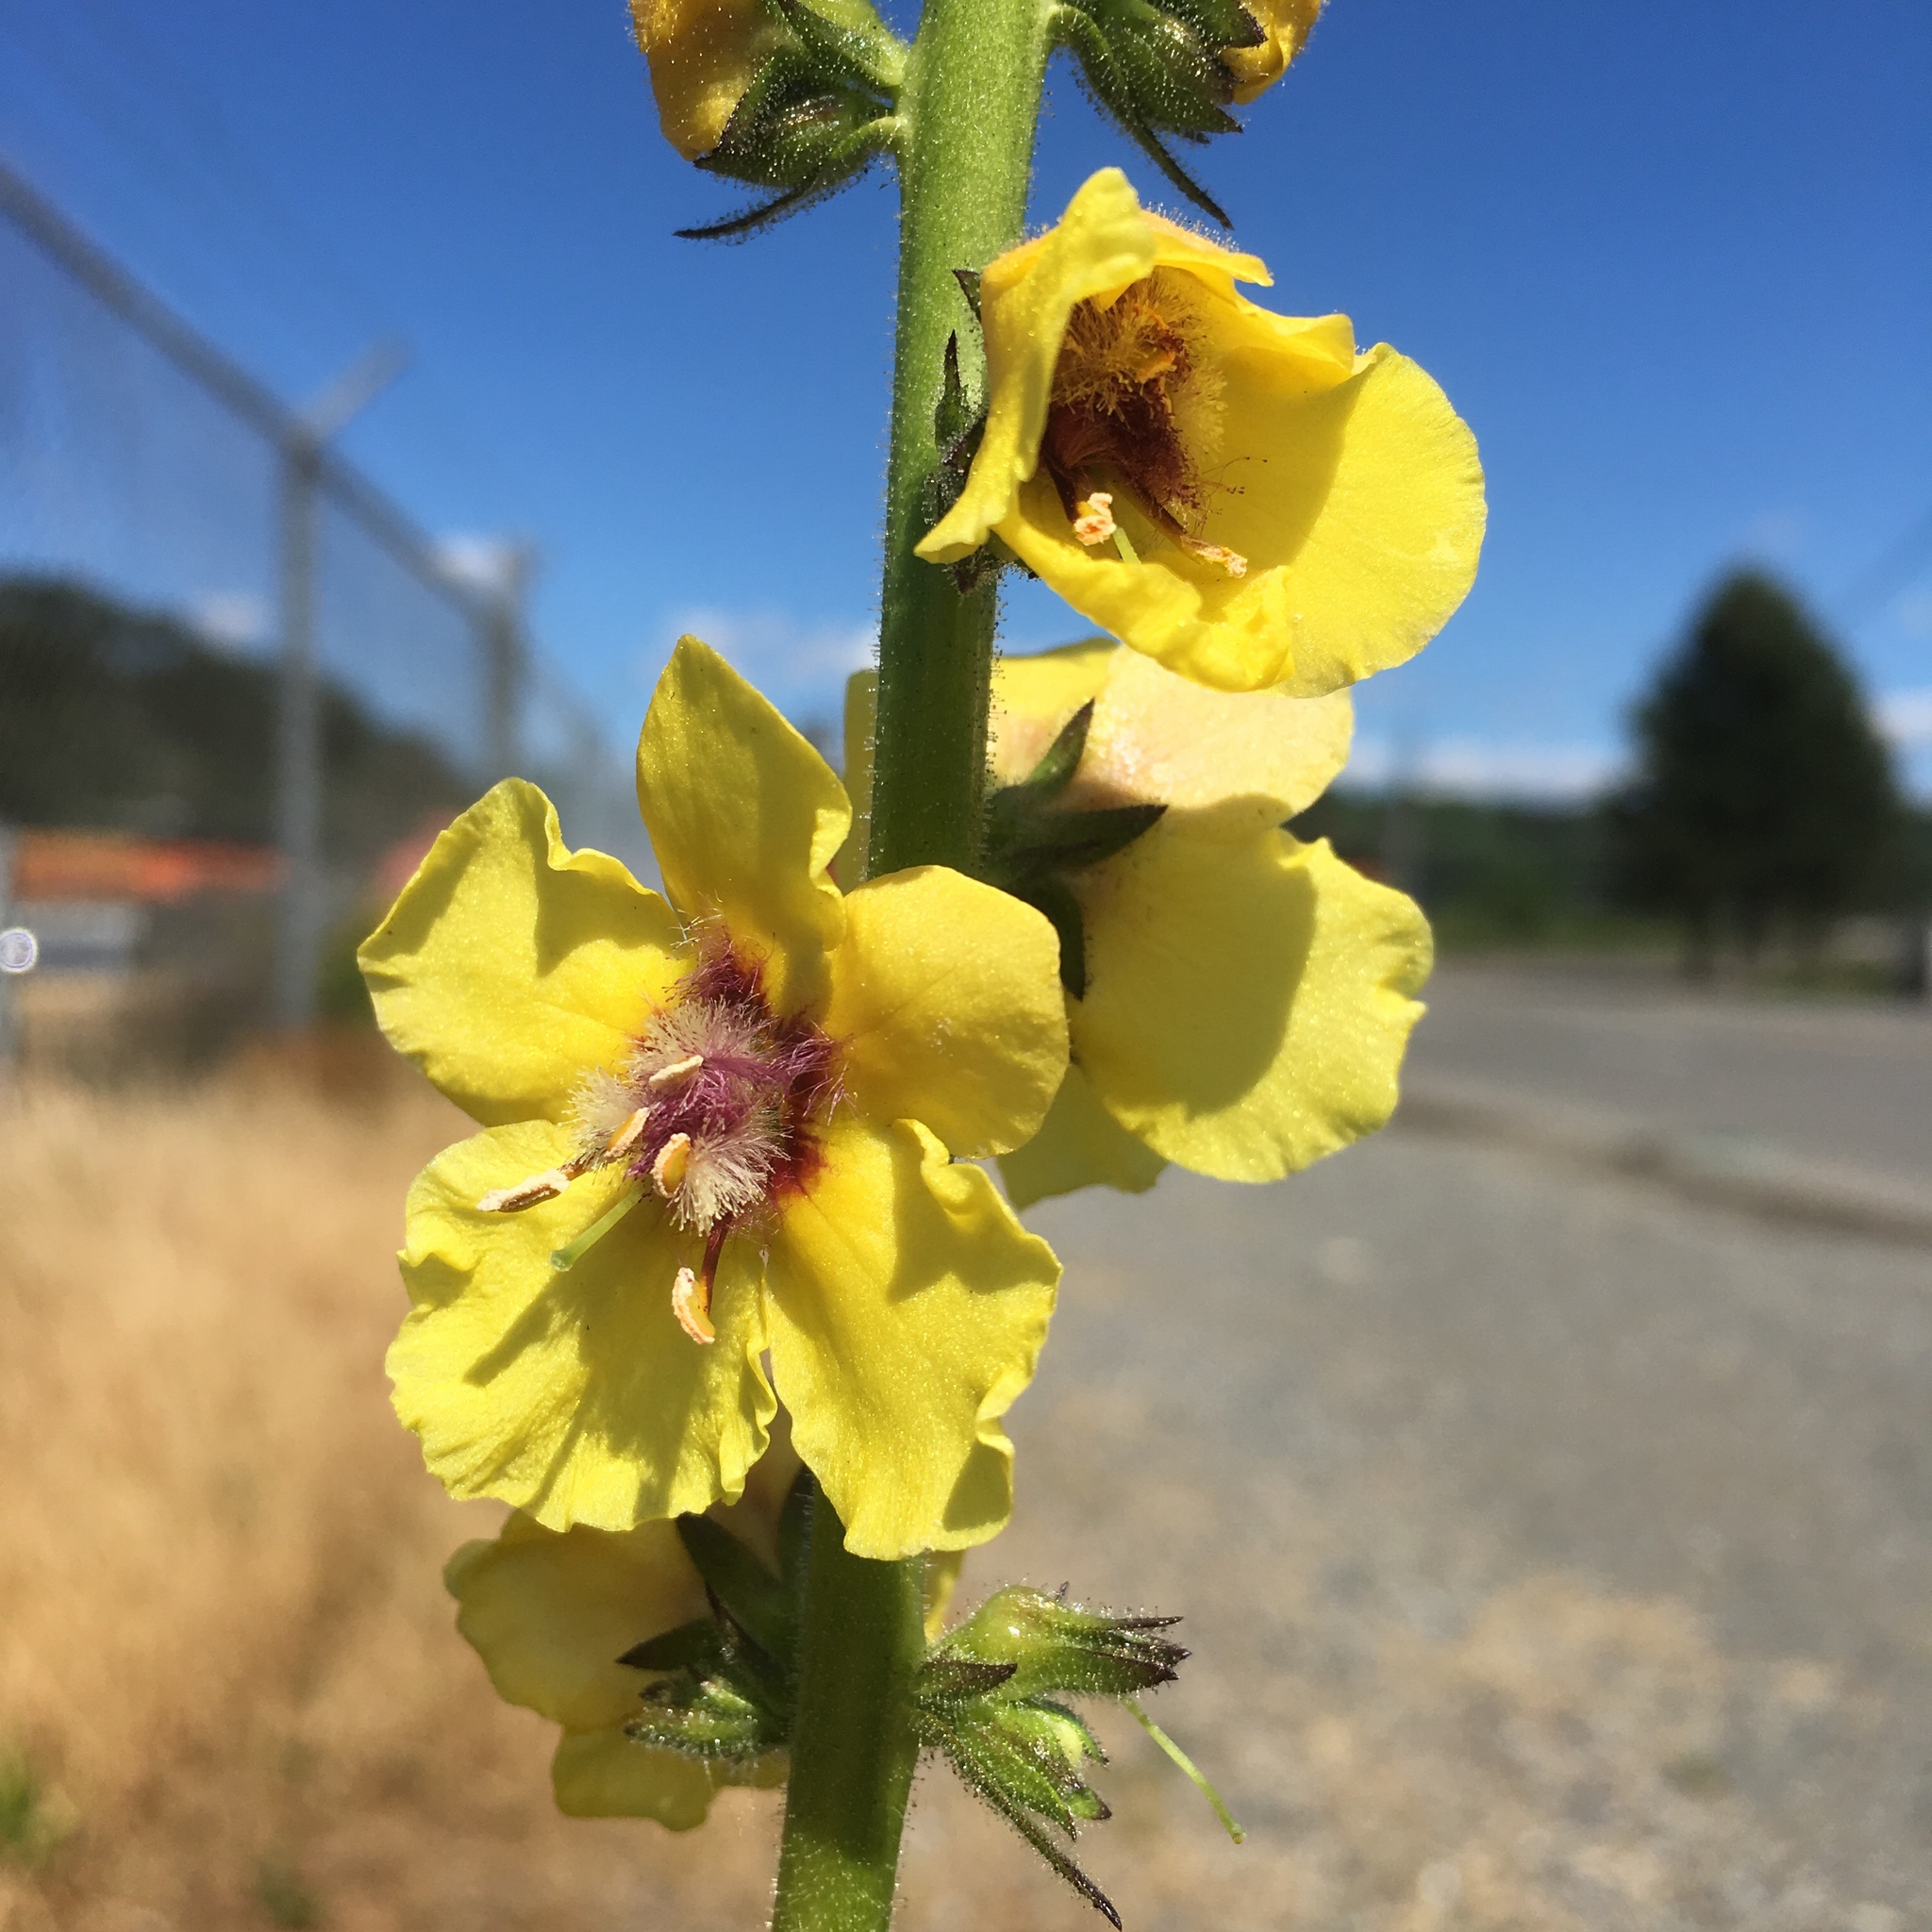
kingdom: Plantae
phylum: Tracheophyta
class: Magnoliopsida
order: Lamiales
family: Scrophulariaceae
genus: Verbascum
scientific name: Verbascum virgatum
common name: Twiggy mullein
